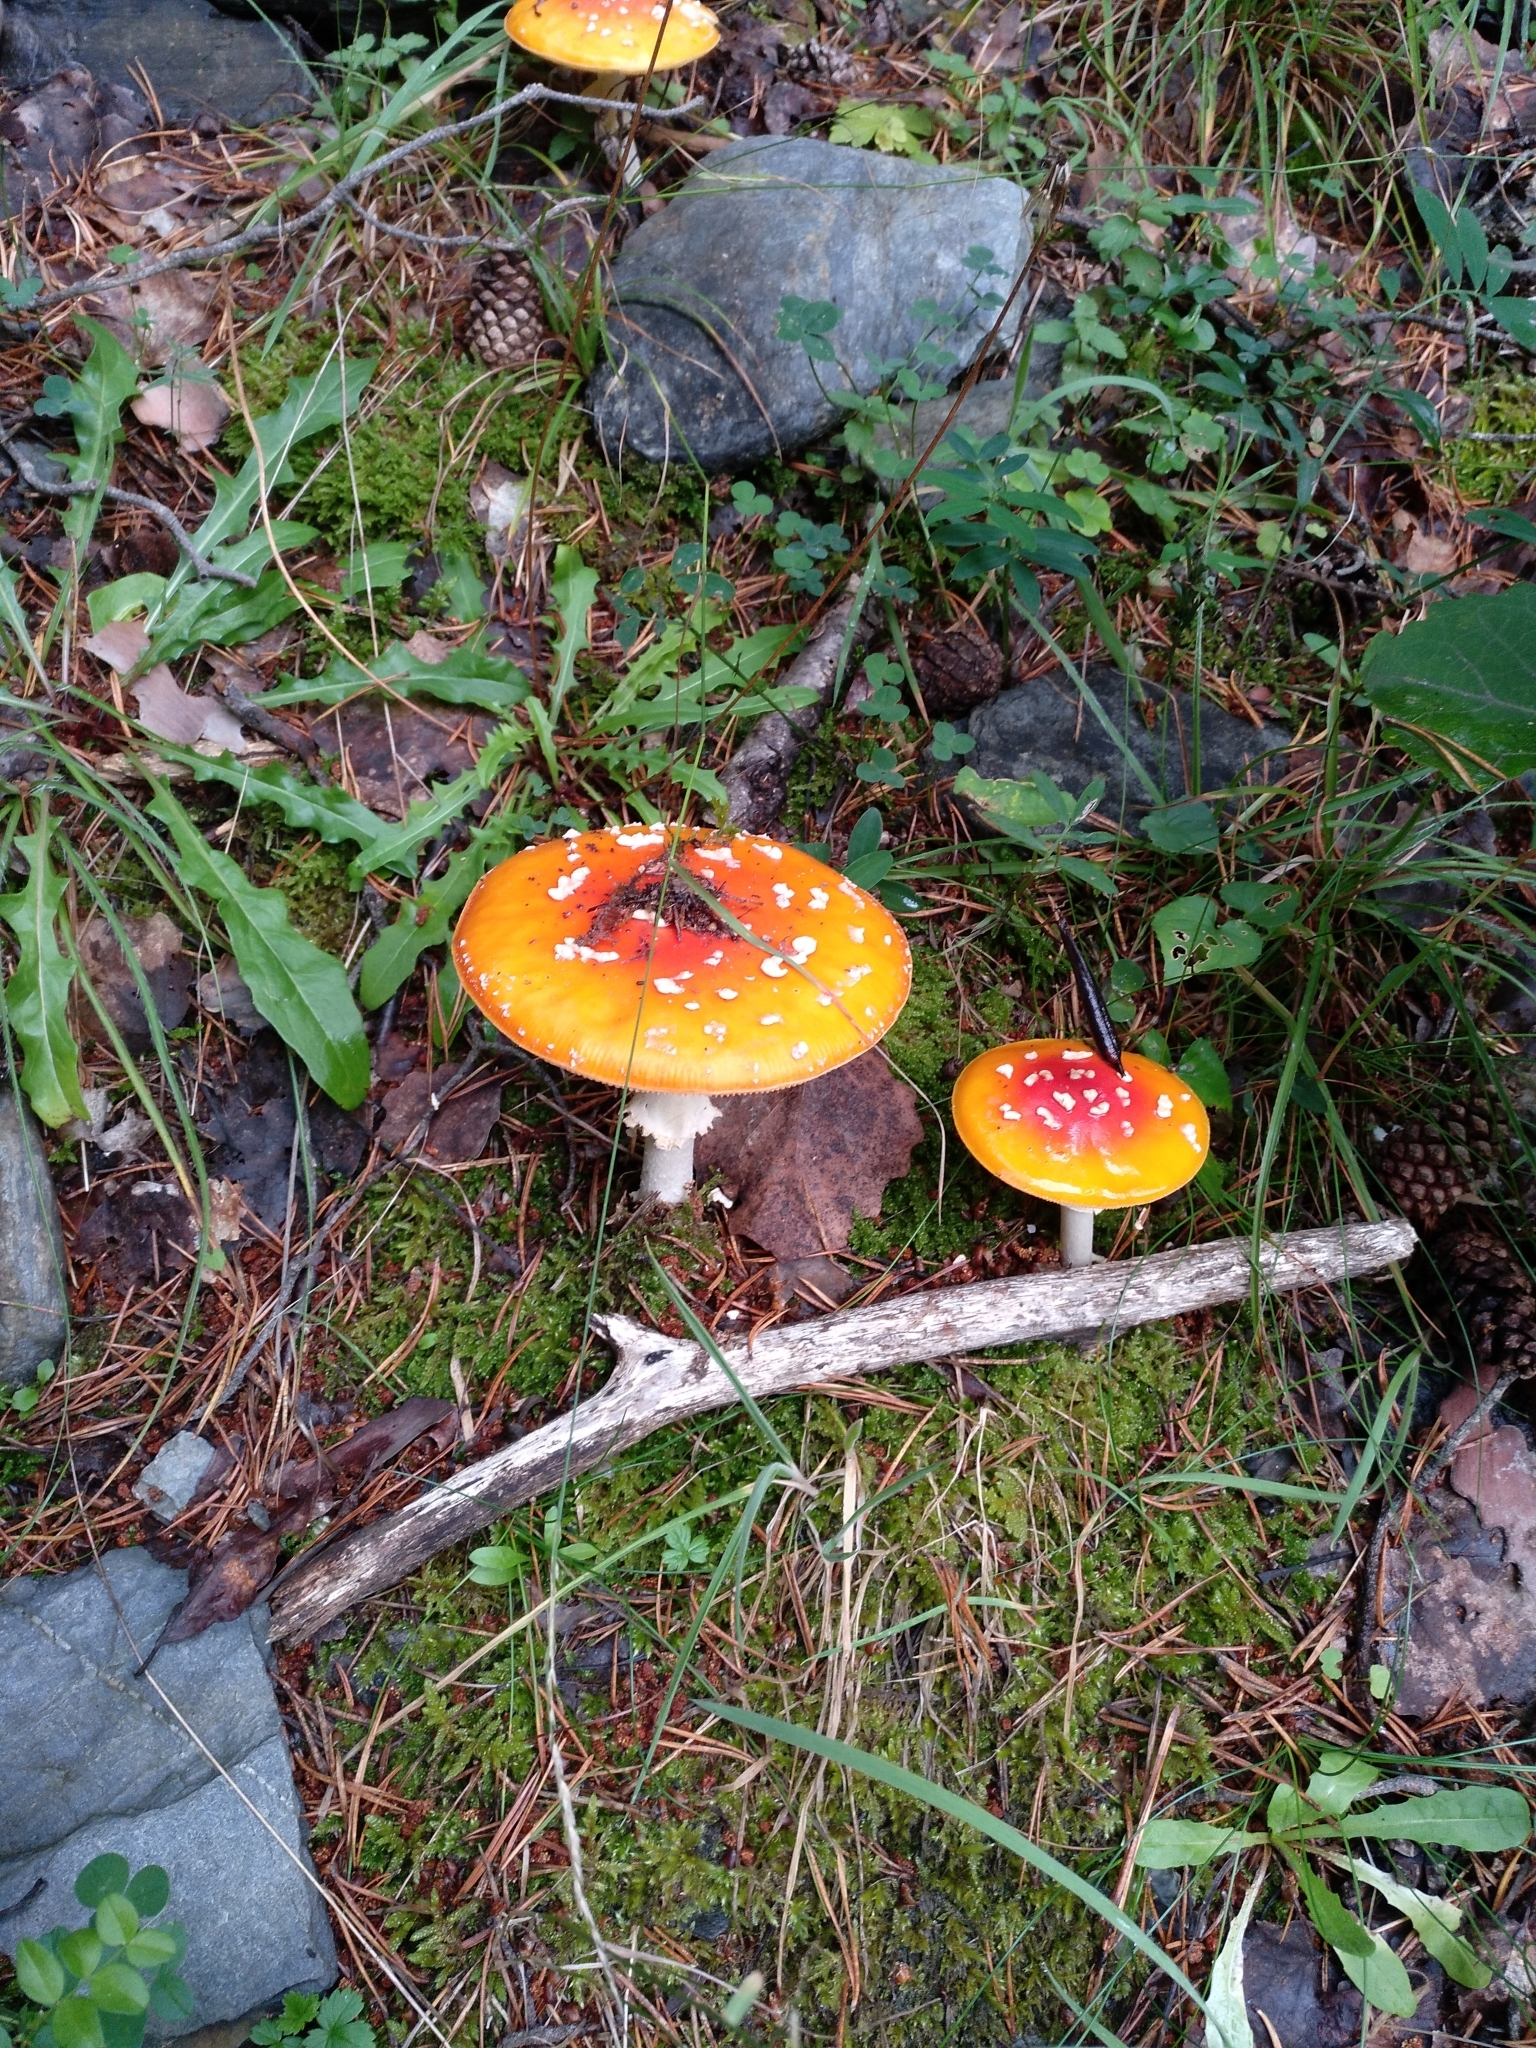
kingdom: Fungi
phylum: Basidiomycota
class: Agaricomycetes
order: Agaricales
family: Amanitaceae
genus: Amanita
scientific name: Amanita muscaria
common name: Fly agaric
